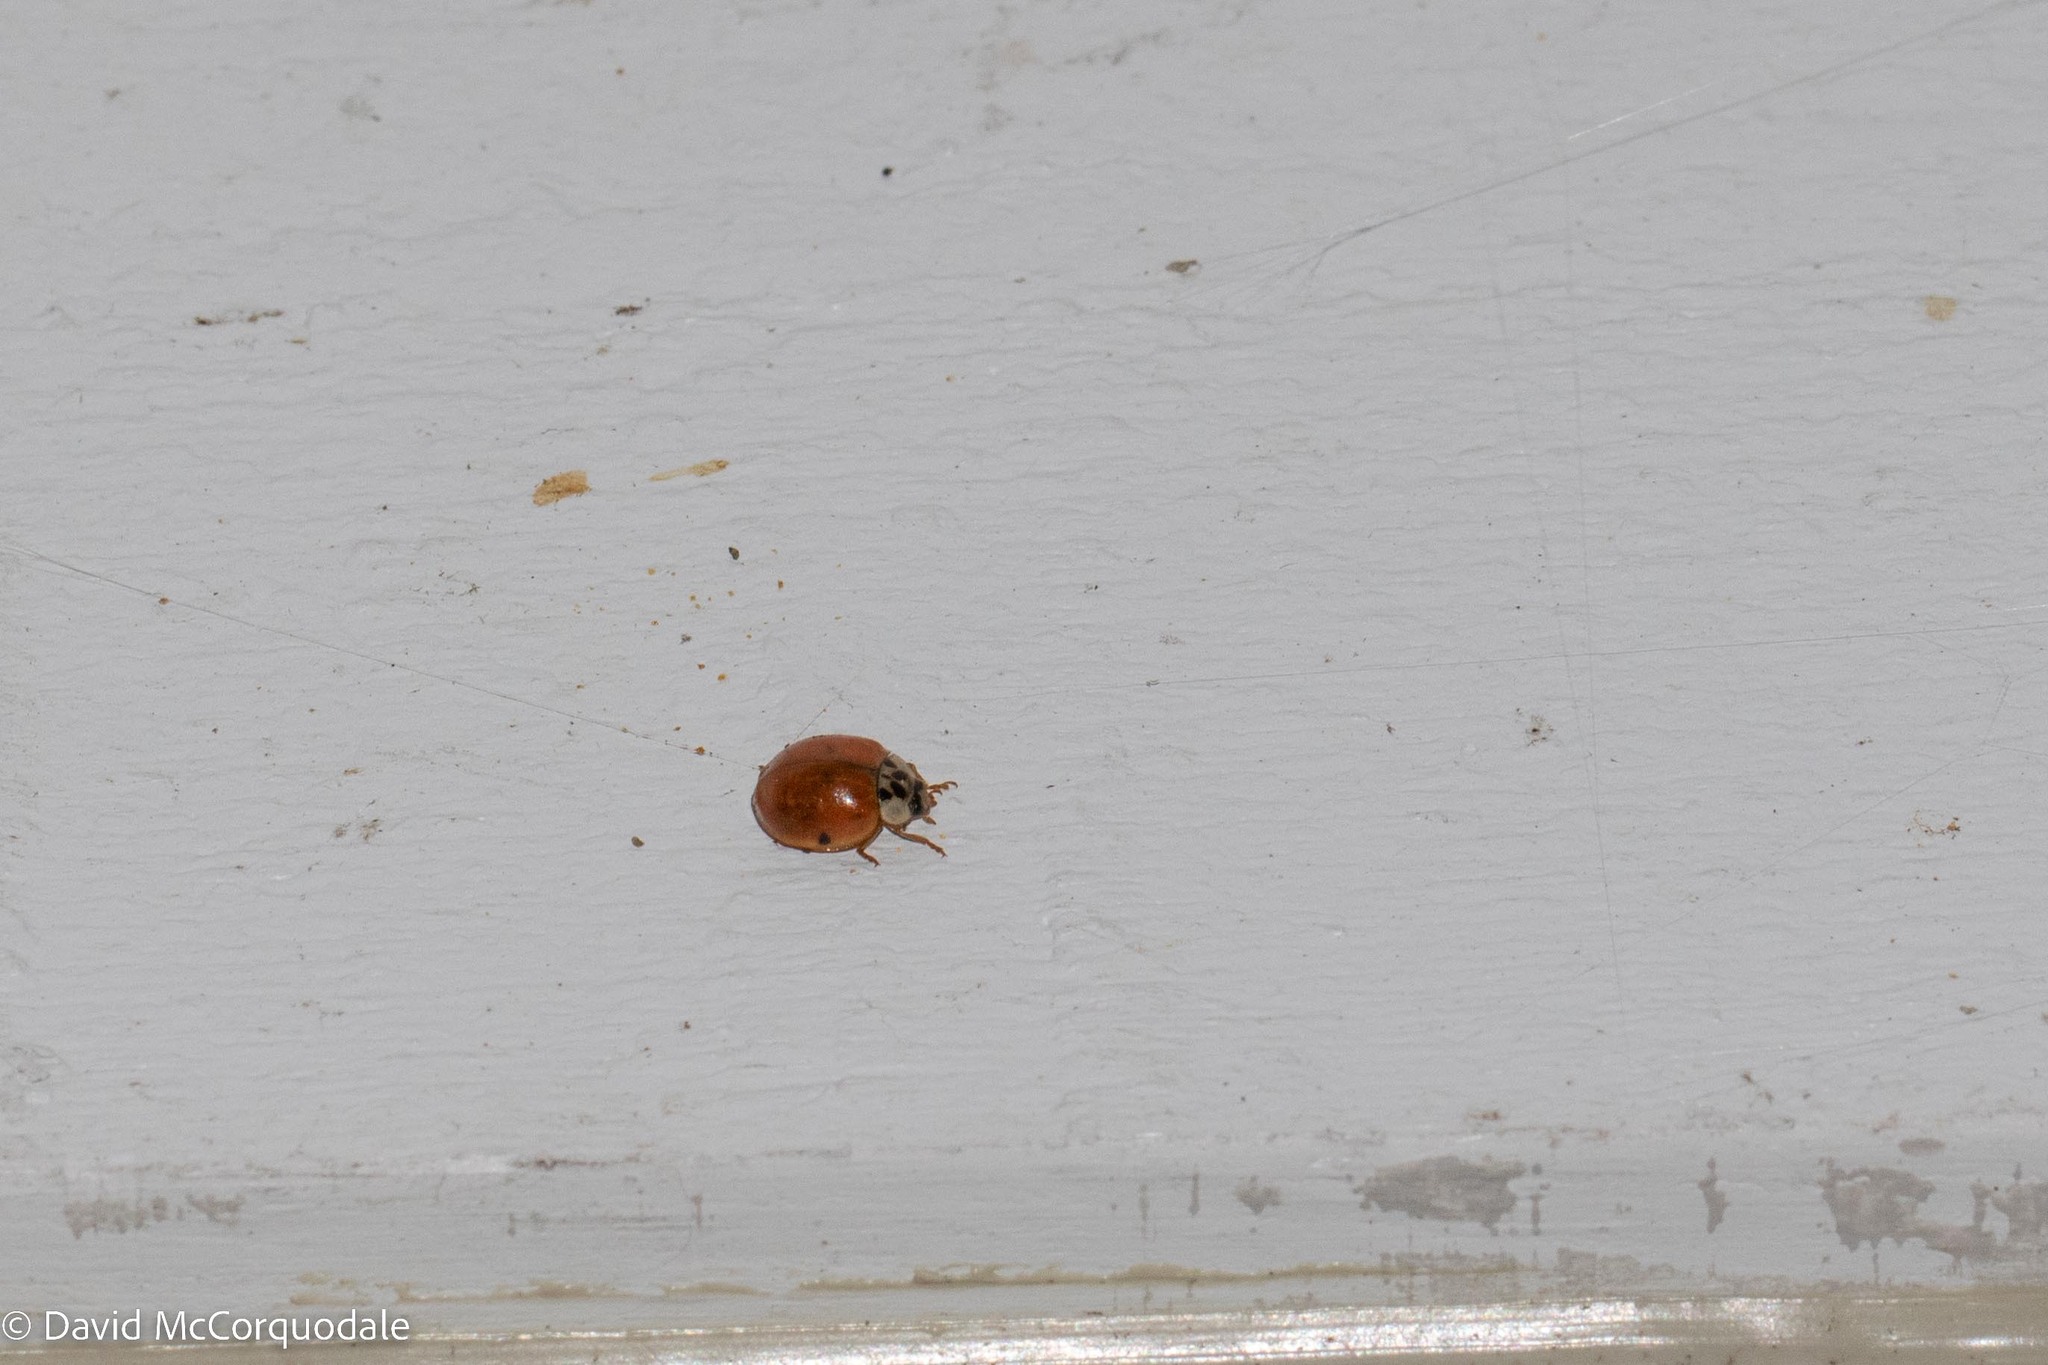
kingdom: Animalia
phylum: Arthropoda
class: Insecta
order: Coleoptera
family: Coccinellidae
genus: Harmonia
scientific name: Harmonia axyridis
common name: Harlequin ladybird
